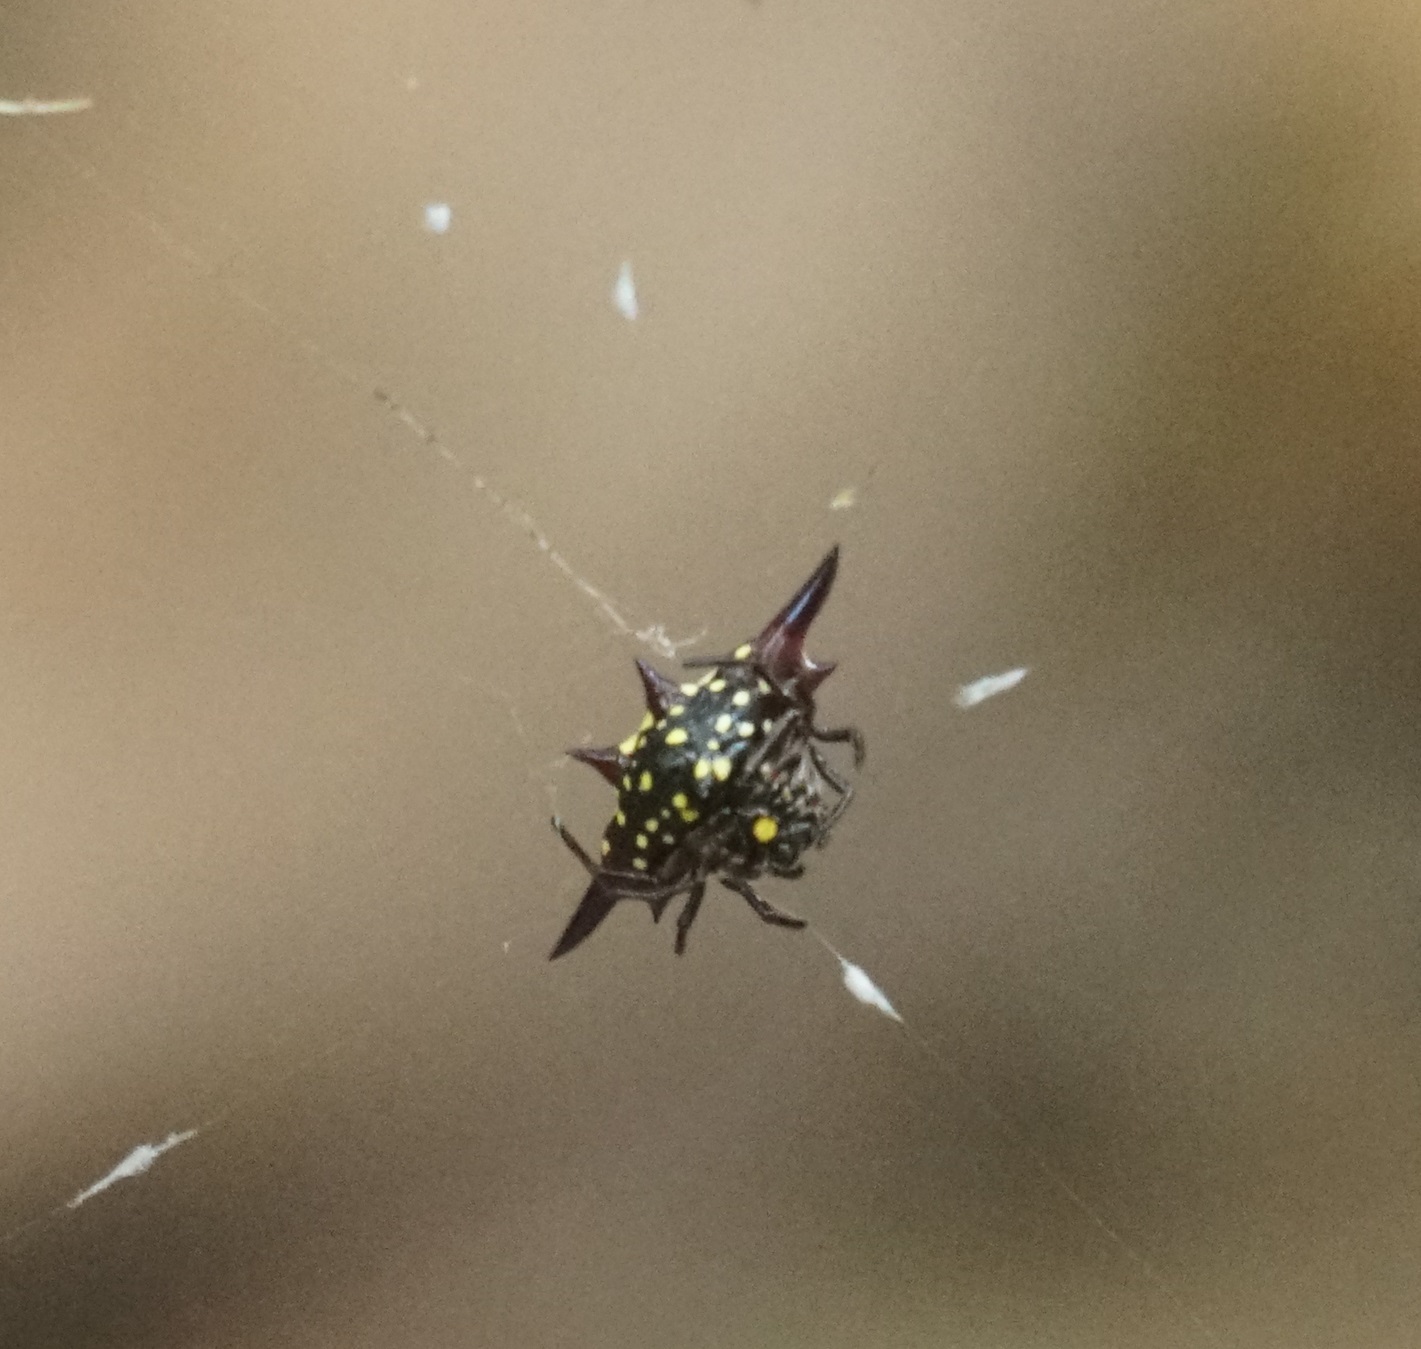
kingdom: Animalia
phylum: Arthropoda
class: Arachnida
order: Araneae
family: Araneidae
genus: Gasteracantha
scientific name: Gasteracantha fornicata
